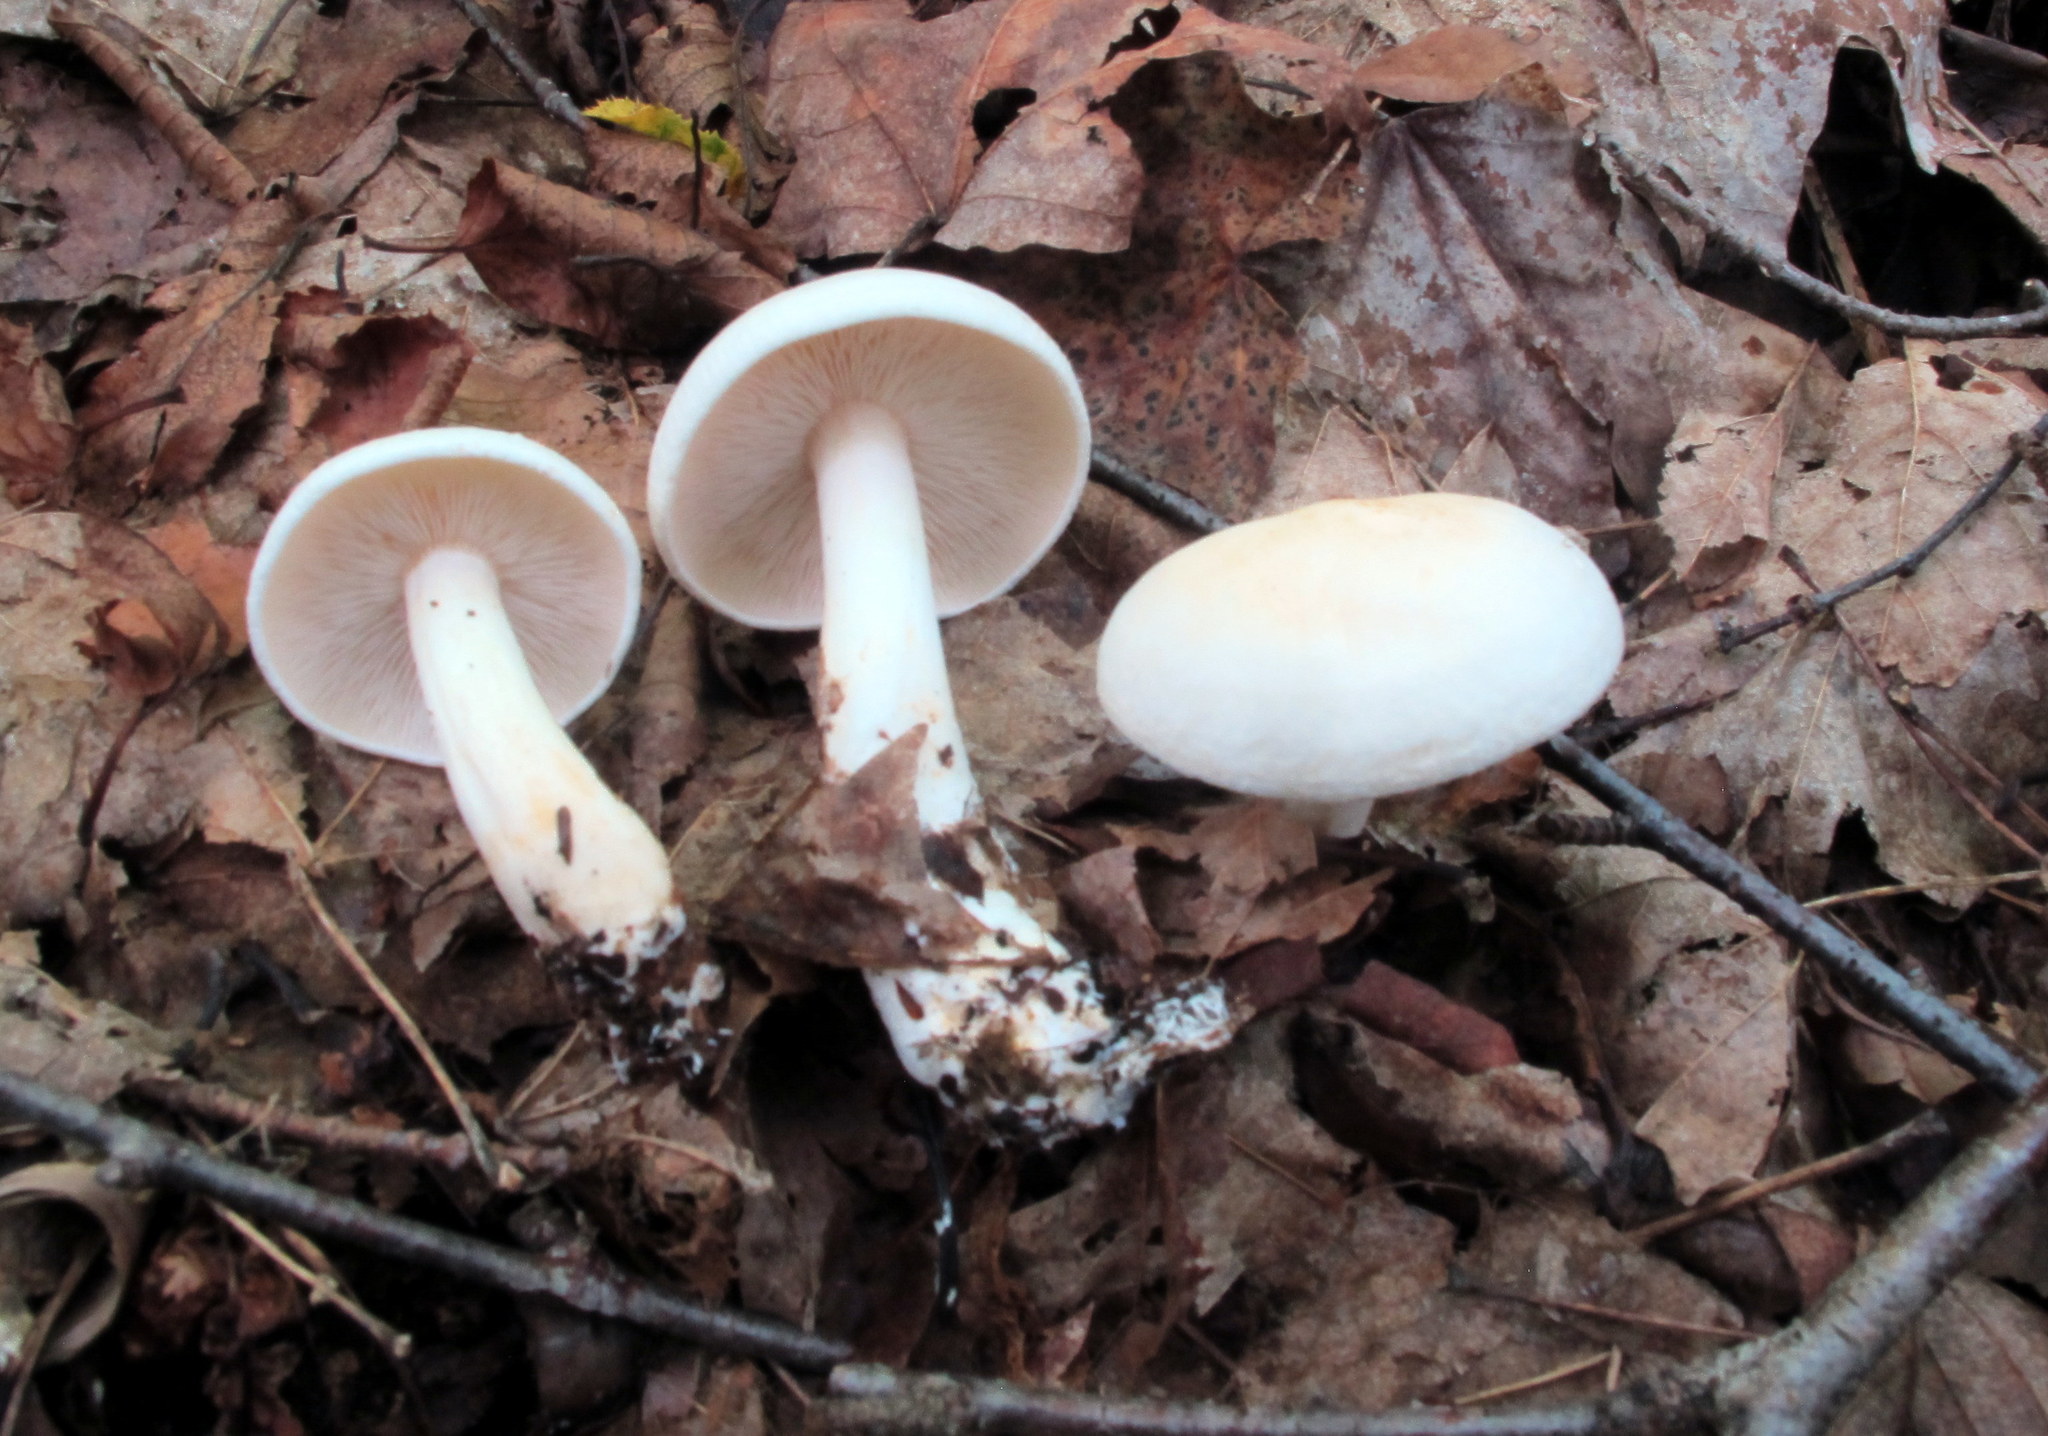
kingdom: Fungi
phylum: Basidiomycota
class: Agaricomycetes
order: Agaricales
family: Tricholomataceae
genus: Collybia
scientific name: Collybia
